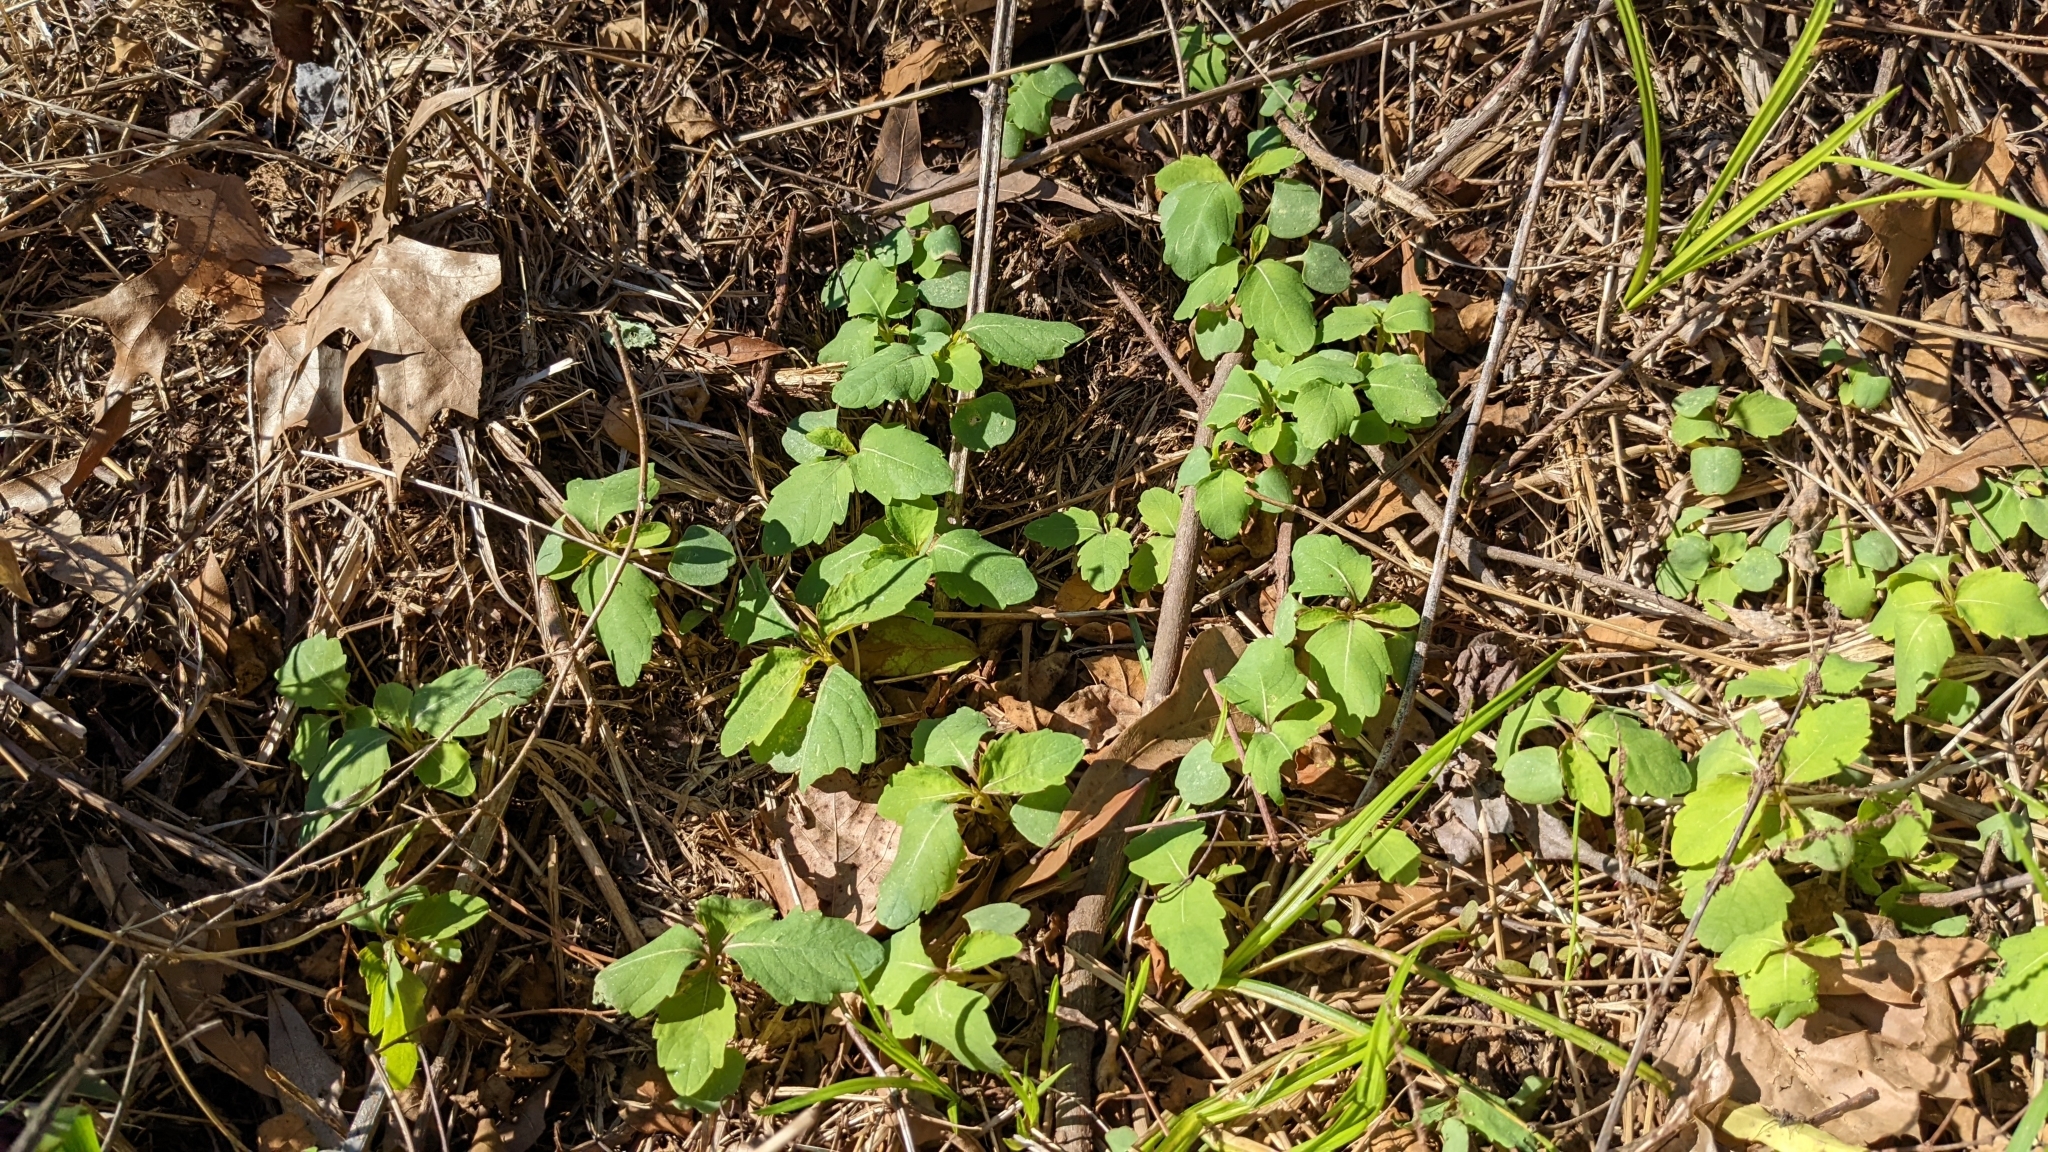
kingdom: Plantae
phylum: Tracheophyta
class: Magnoliopsida
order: Ericales
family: Balsaminaceae
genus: Impatiens
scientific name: Impatiens capensis
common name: Orange balsam
